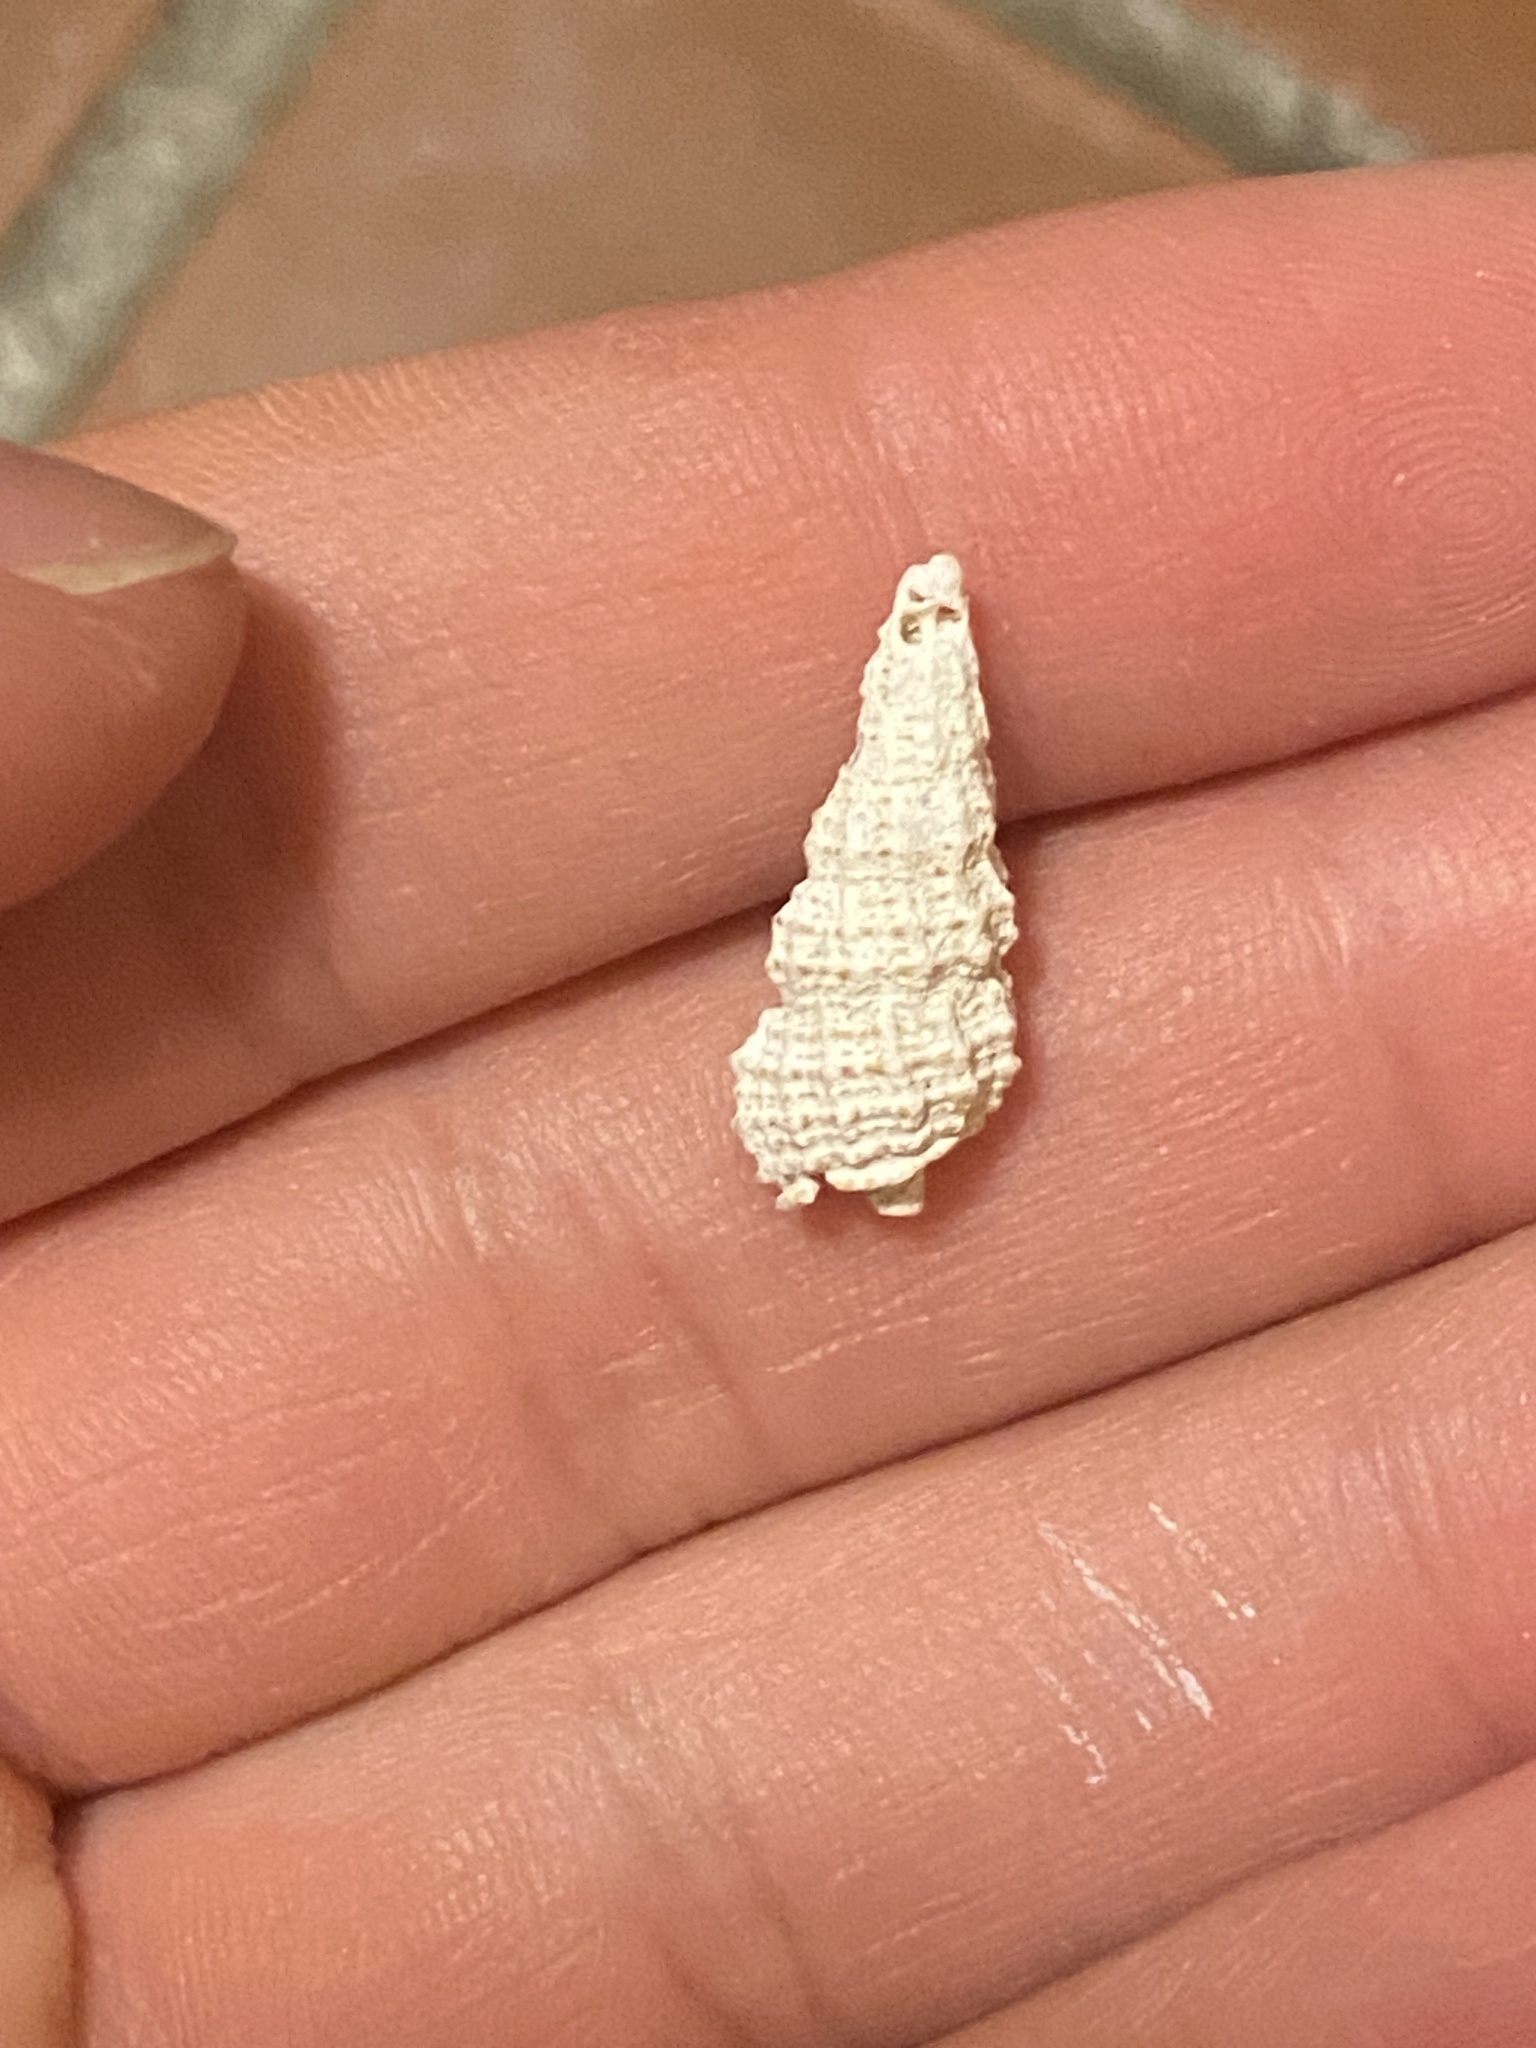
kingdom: Animalia
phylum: Mollusca
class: Gastropoda
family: Cerithiidae
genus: Cerithium
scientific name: Cerithium muscarum
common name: Fly-specked cerith
